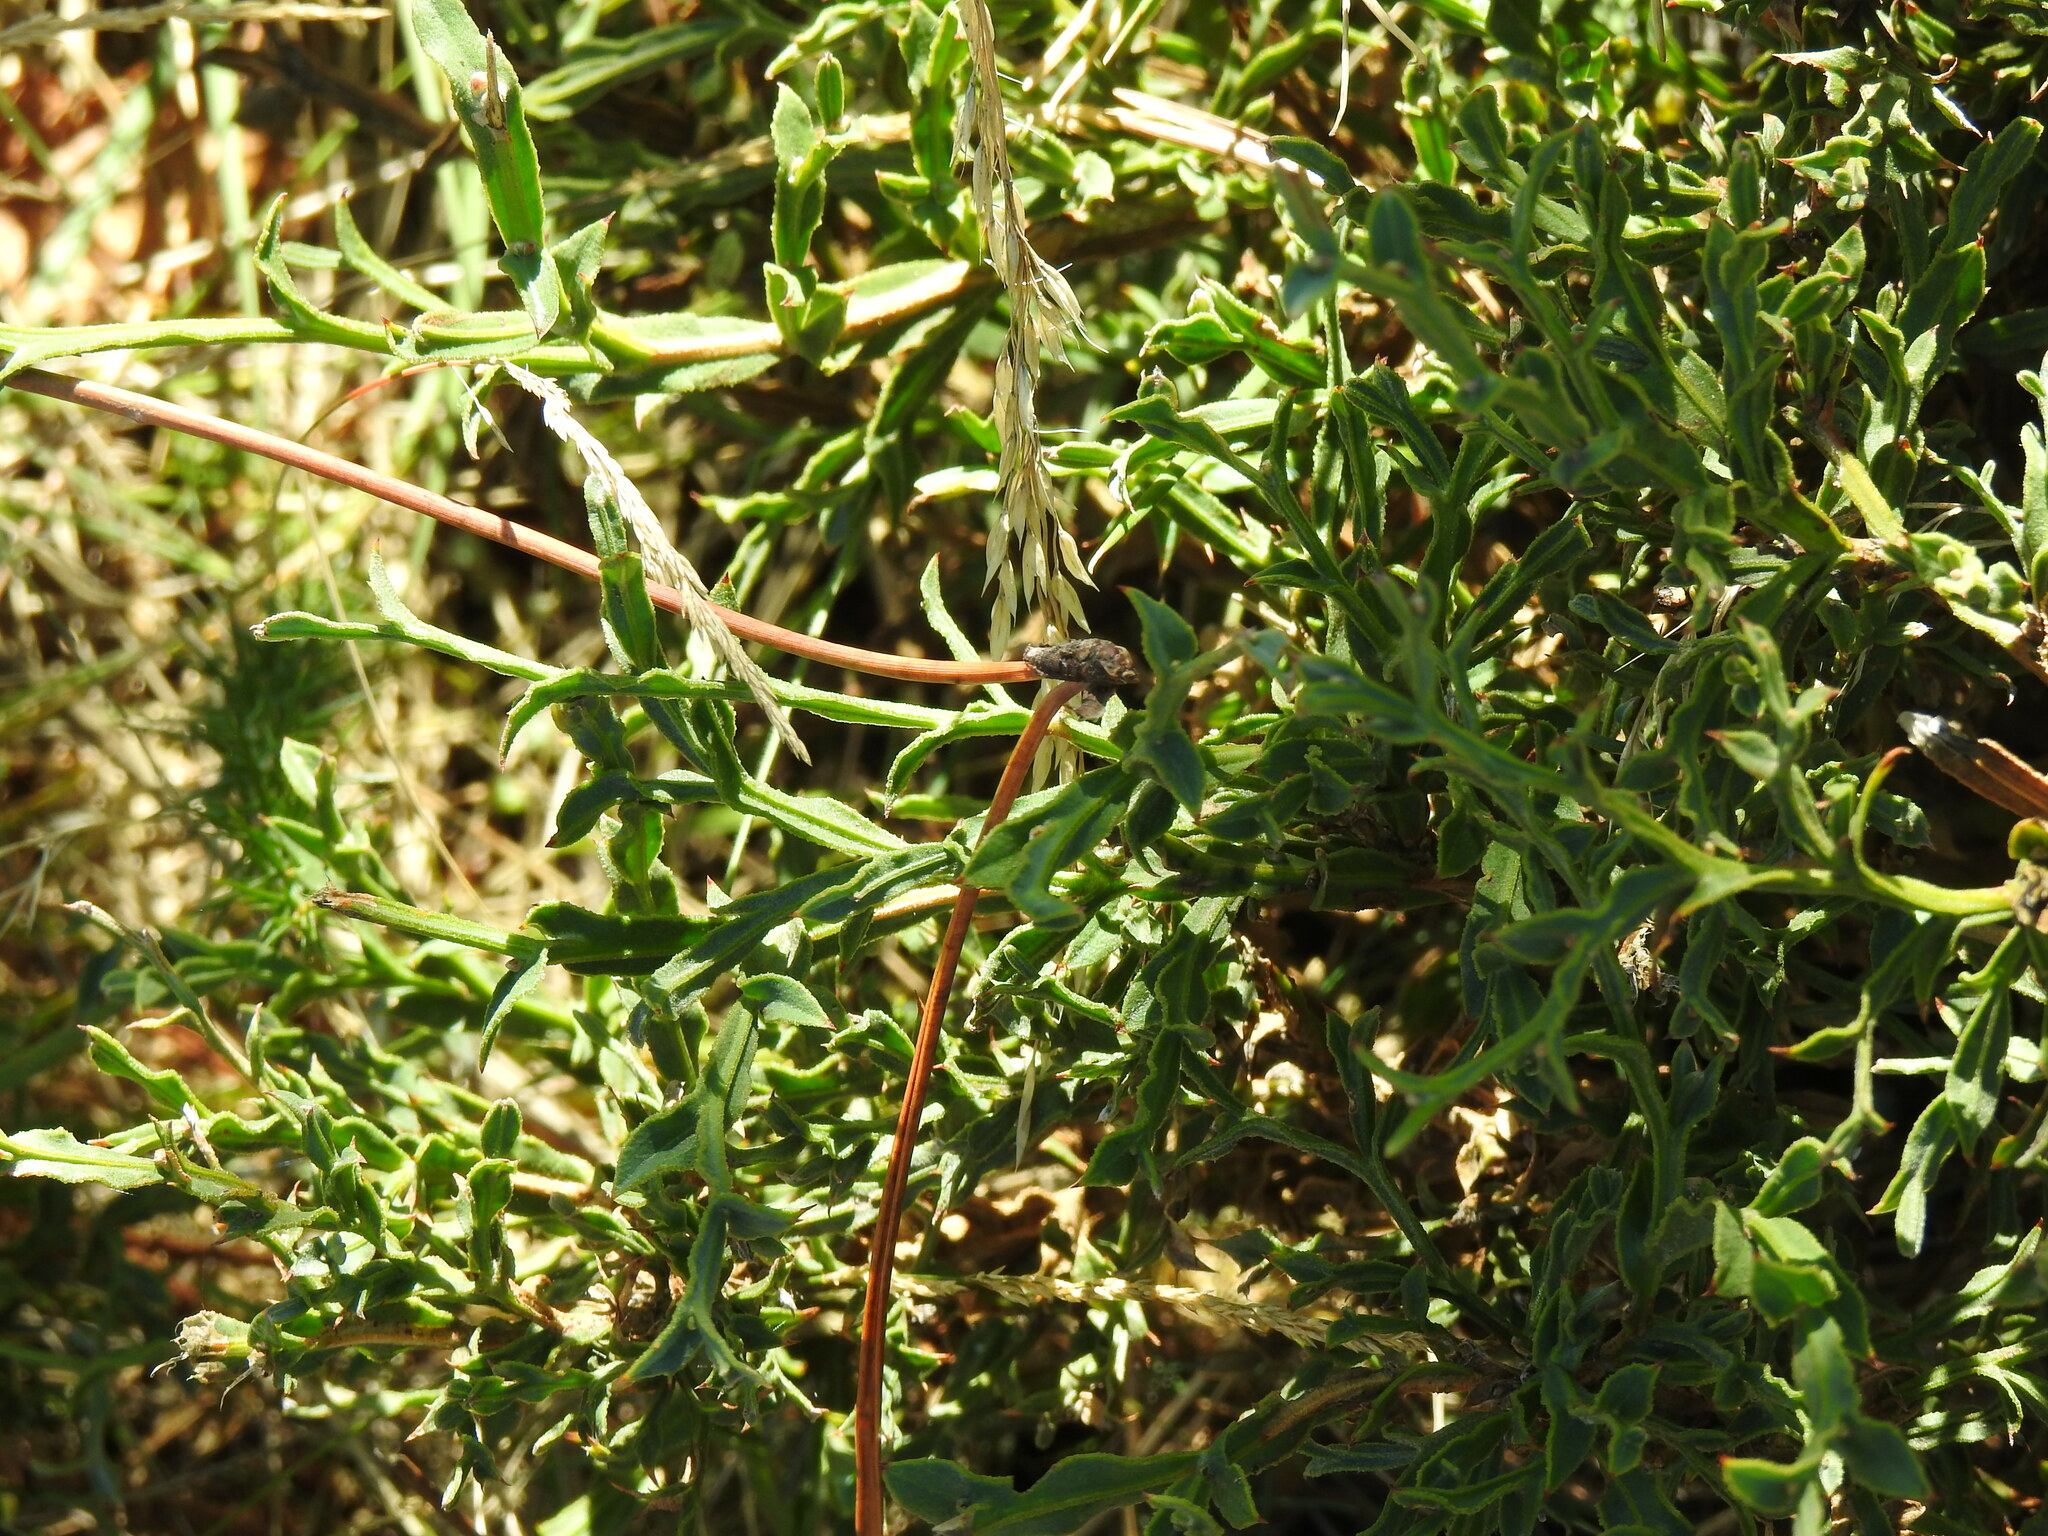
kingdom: Plantae
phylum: Tracheophyta
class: Magnoliopsida
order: Fabales
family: Fabaceae
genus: Genista
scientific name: Genista tridentata
